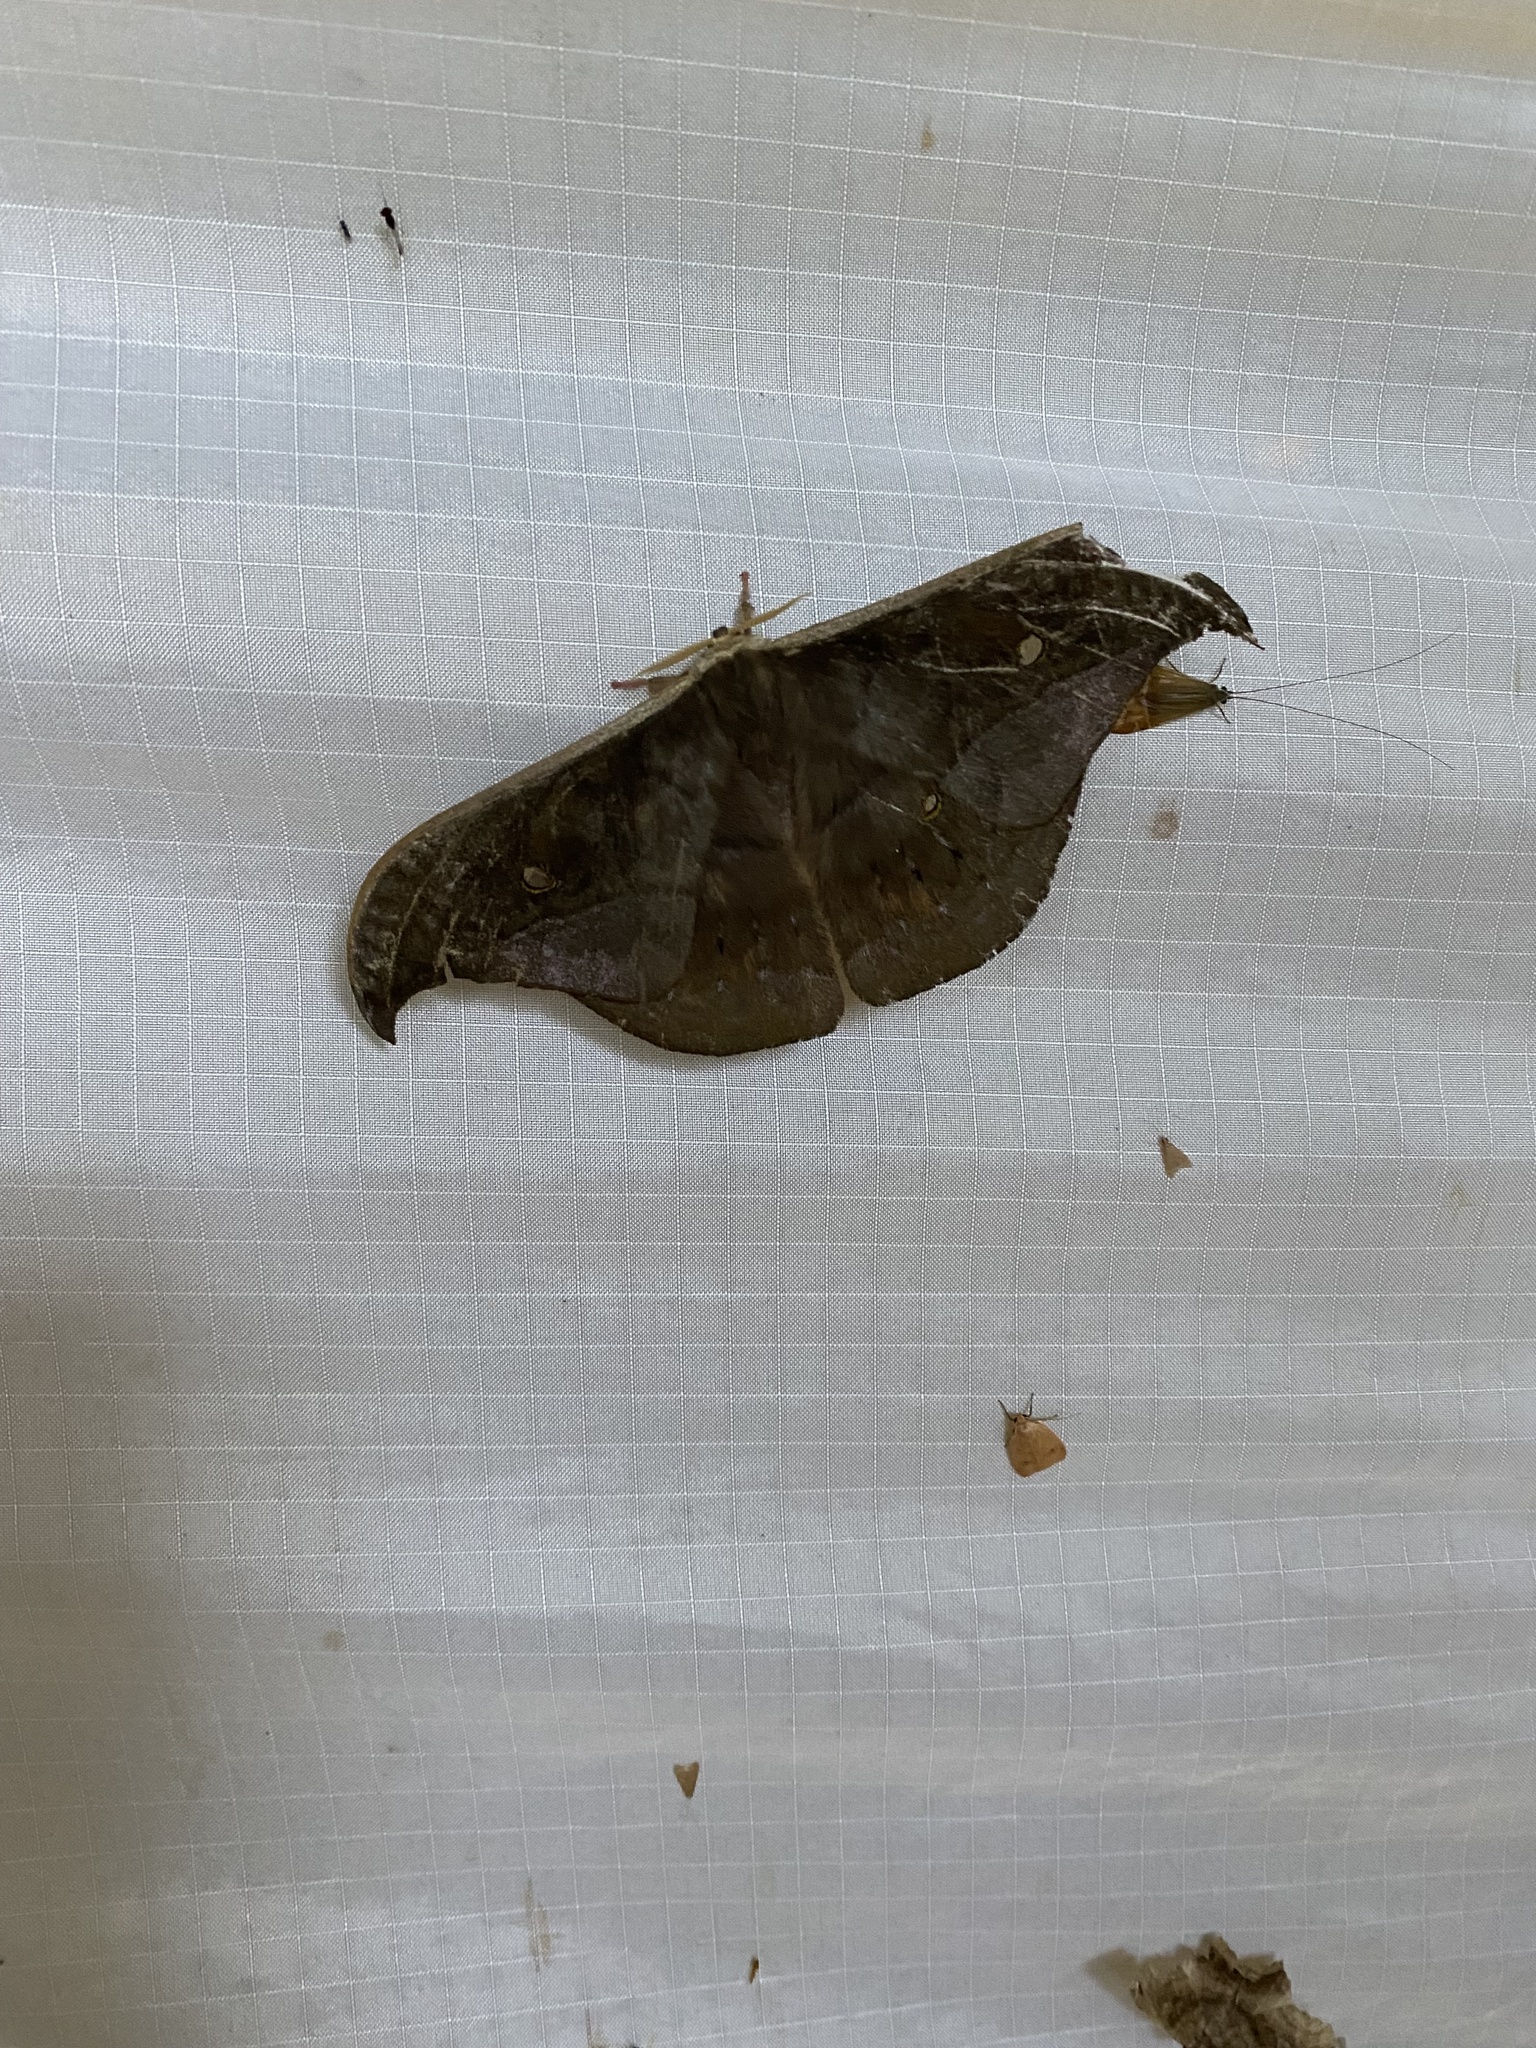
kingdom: Animalia
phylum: Arthropoda
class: Insecta
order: Lepidoptera
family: Saturniidae
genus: Copaxa
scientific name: Copaxa curvilinea
